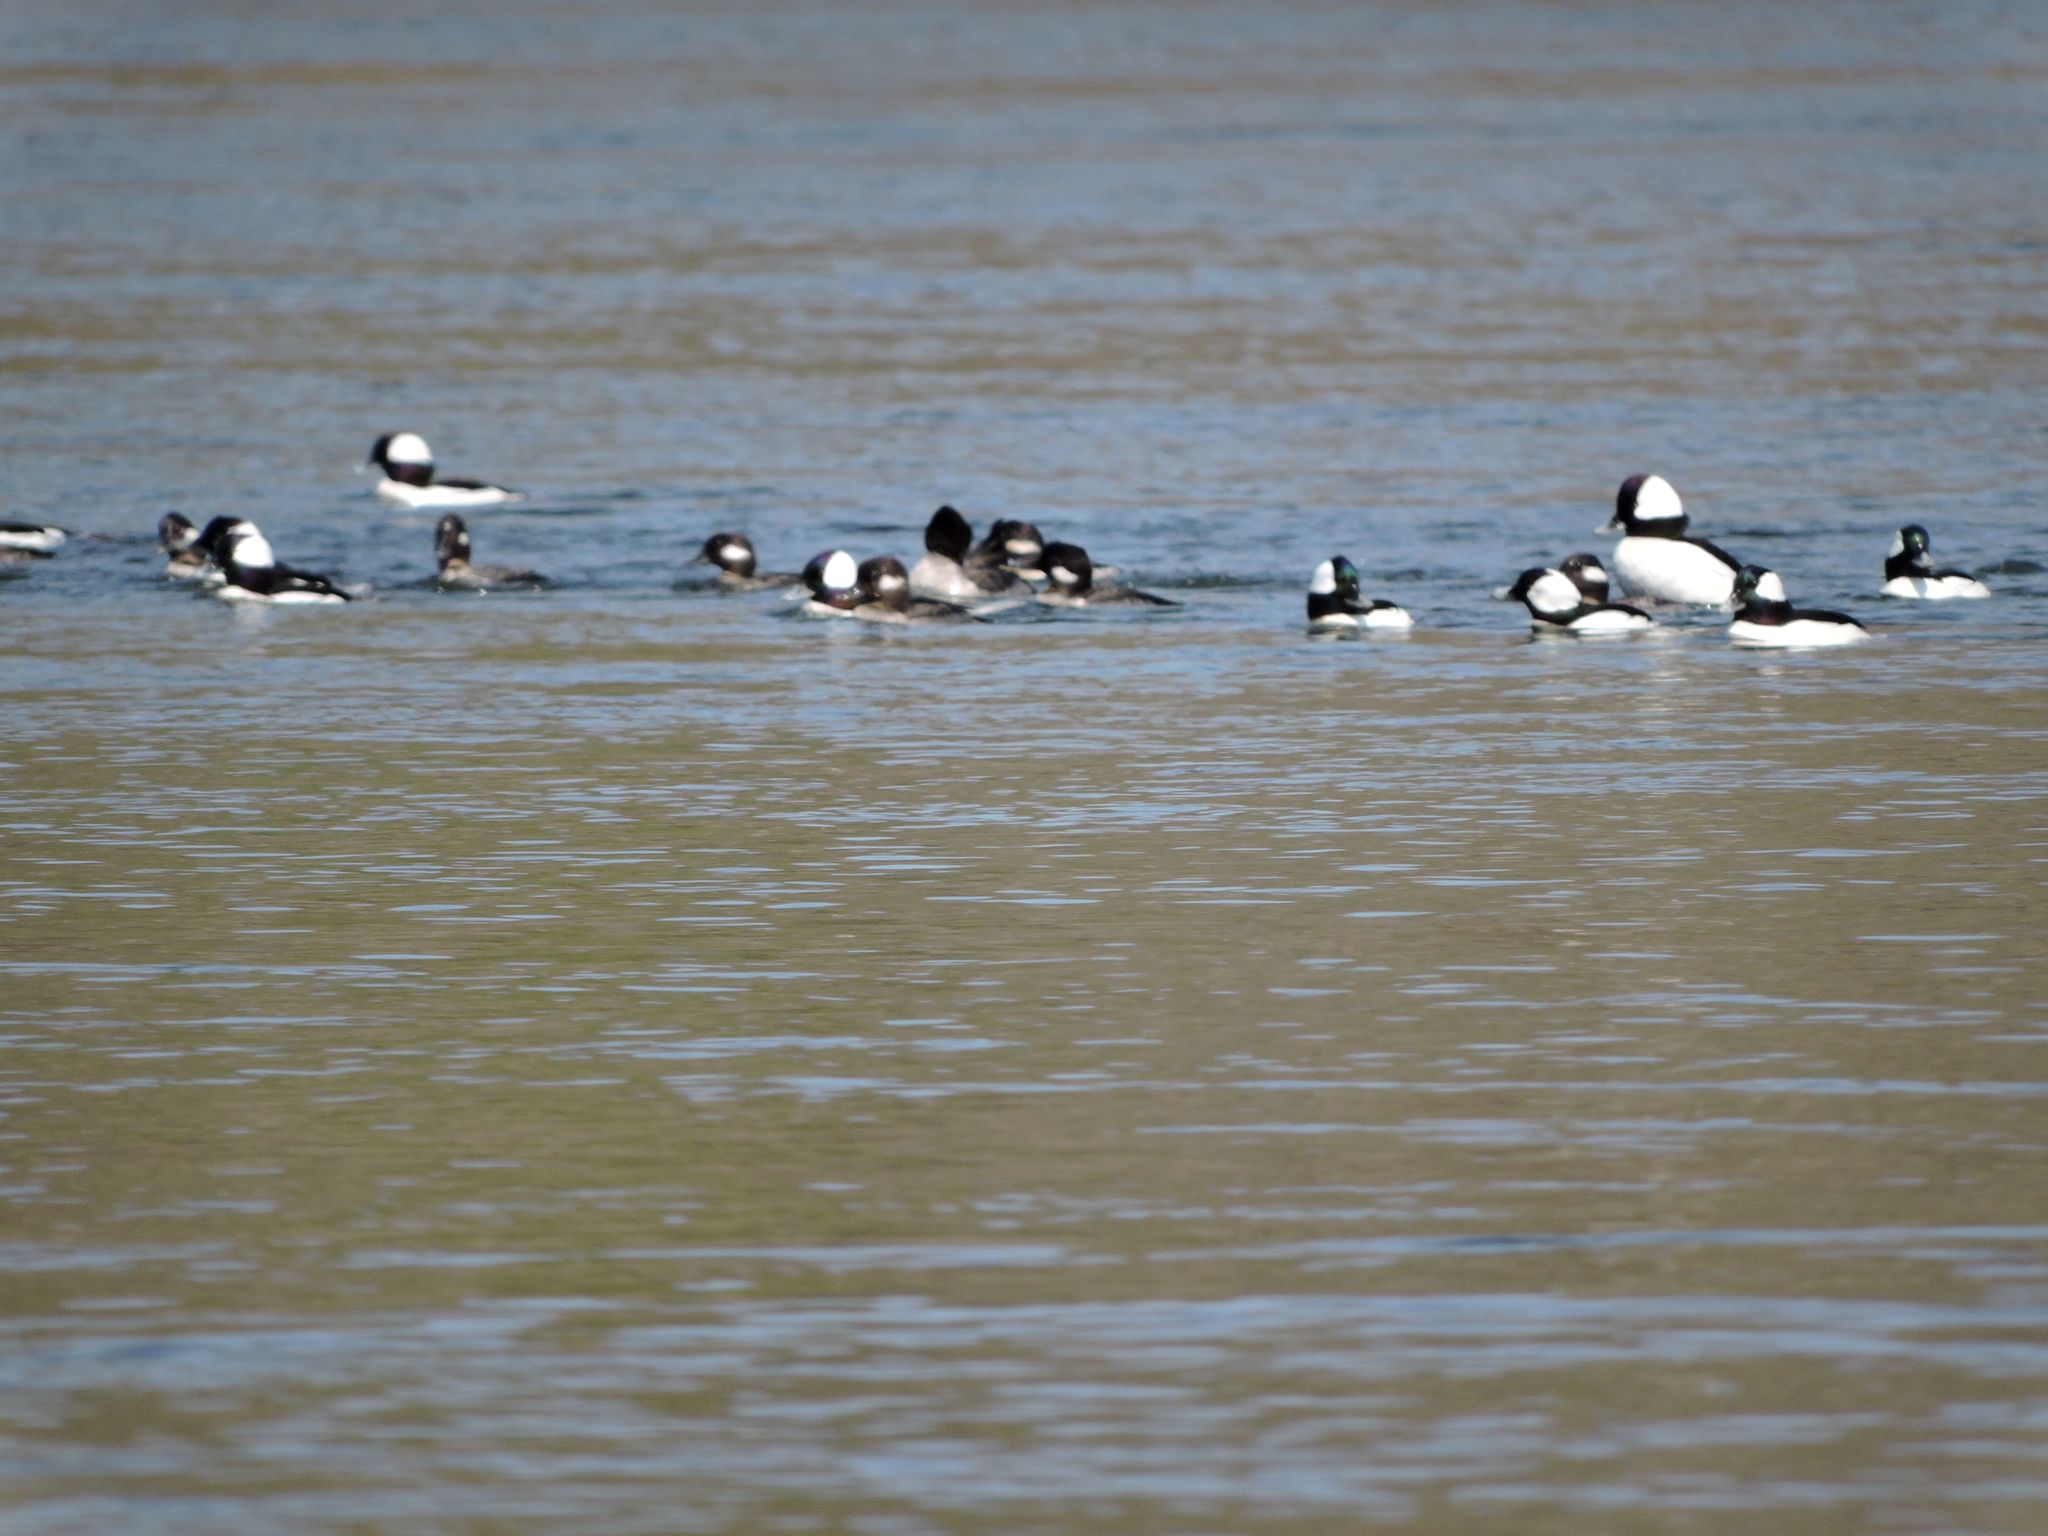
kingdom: Animalia
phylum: Chordata
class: Aves
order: Anseriformes
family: Anatidae
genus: Bucephala
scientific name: Bucephala albeola
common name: Bufflehead
